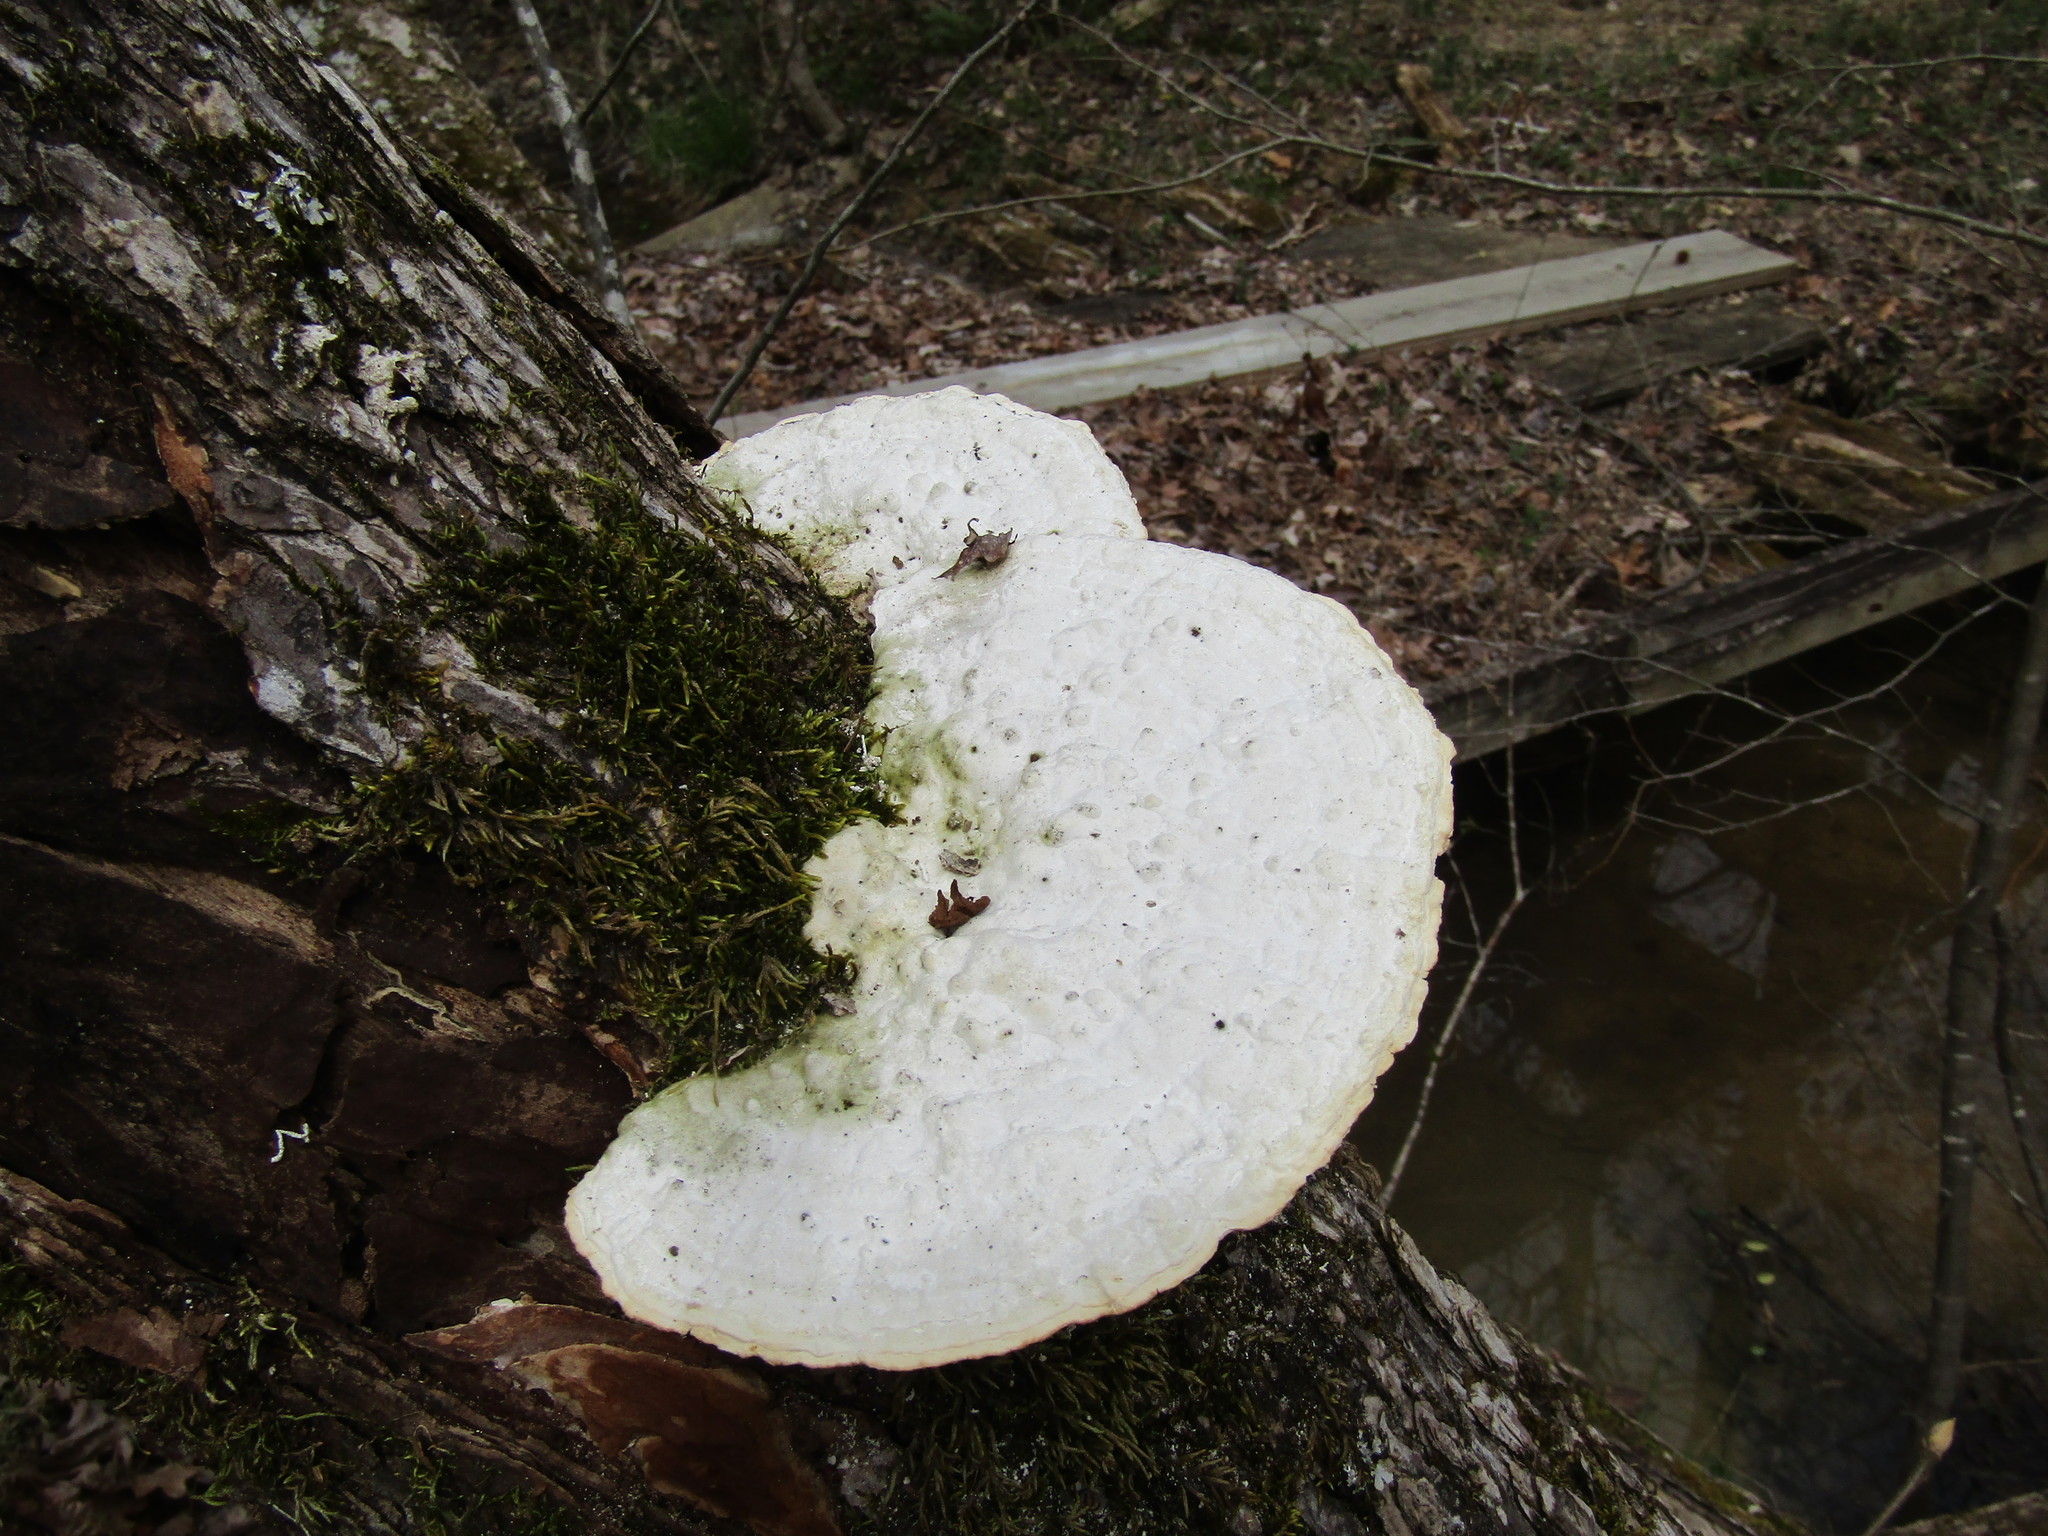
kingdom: Fungi
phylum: Basidiomycota
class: Agaricomycetes
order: Polyporales
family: Polyporaceae
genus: Trametes
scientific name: Trametes gibbosa
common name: Lumpy bracket
